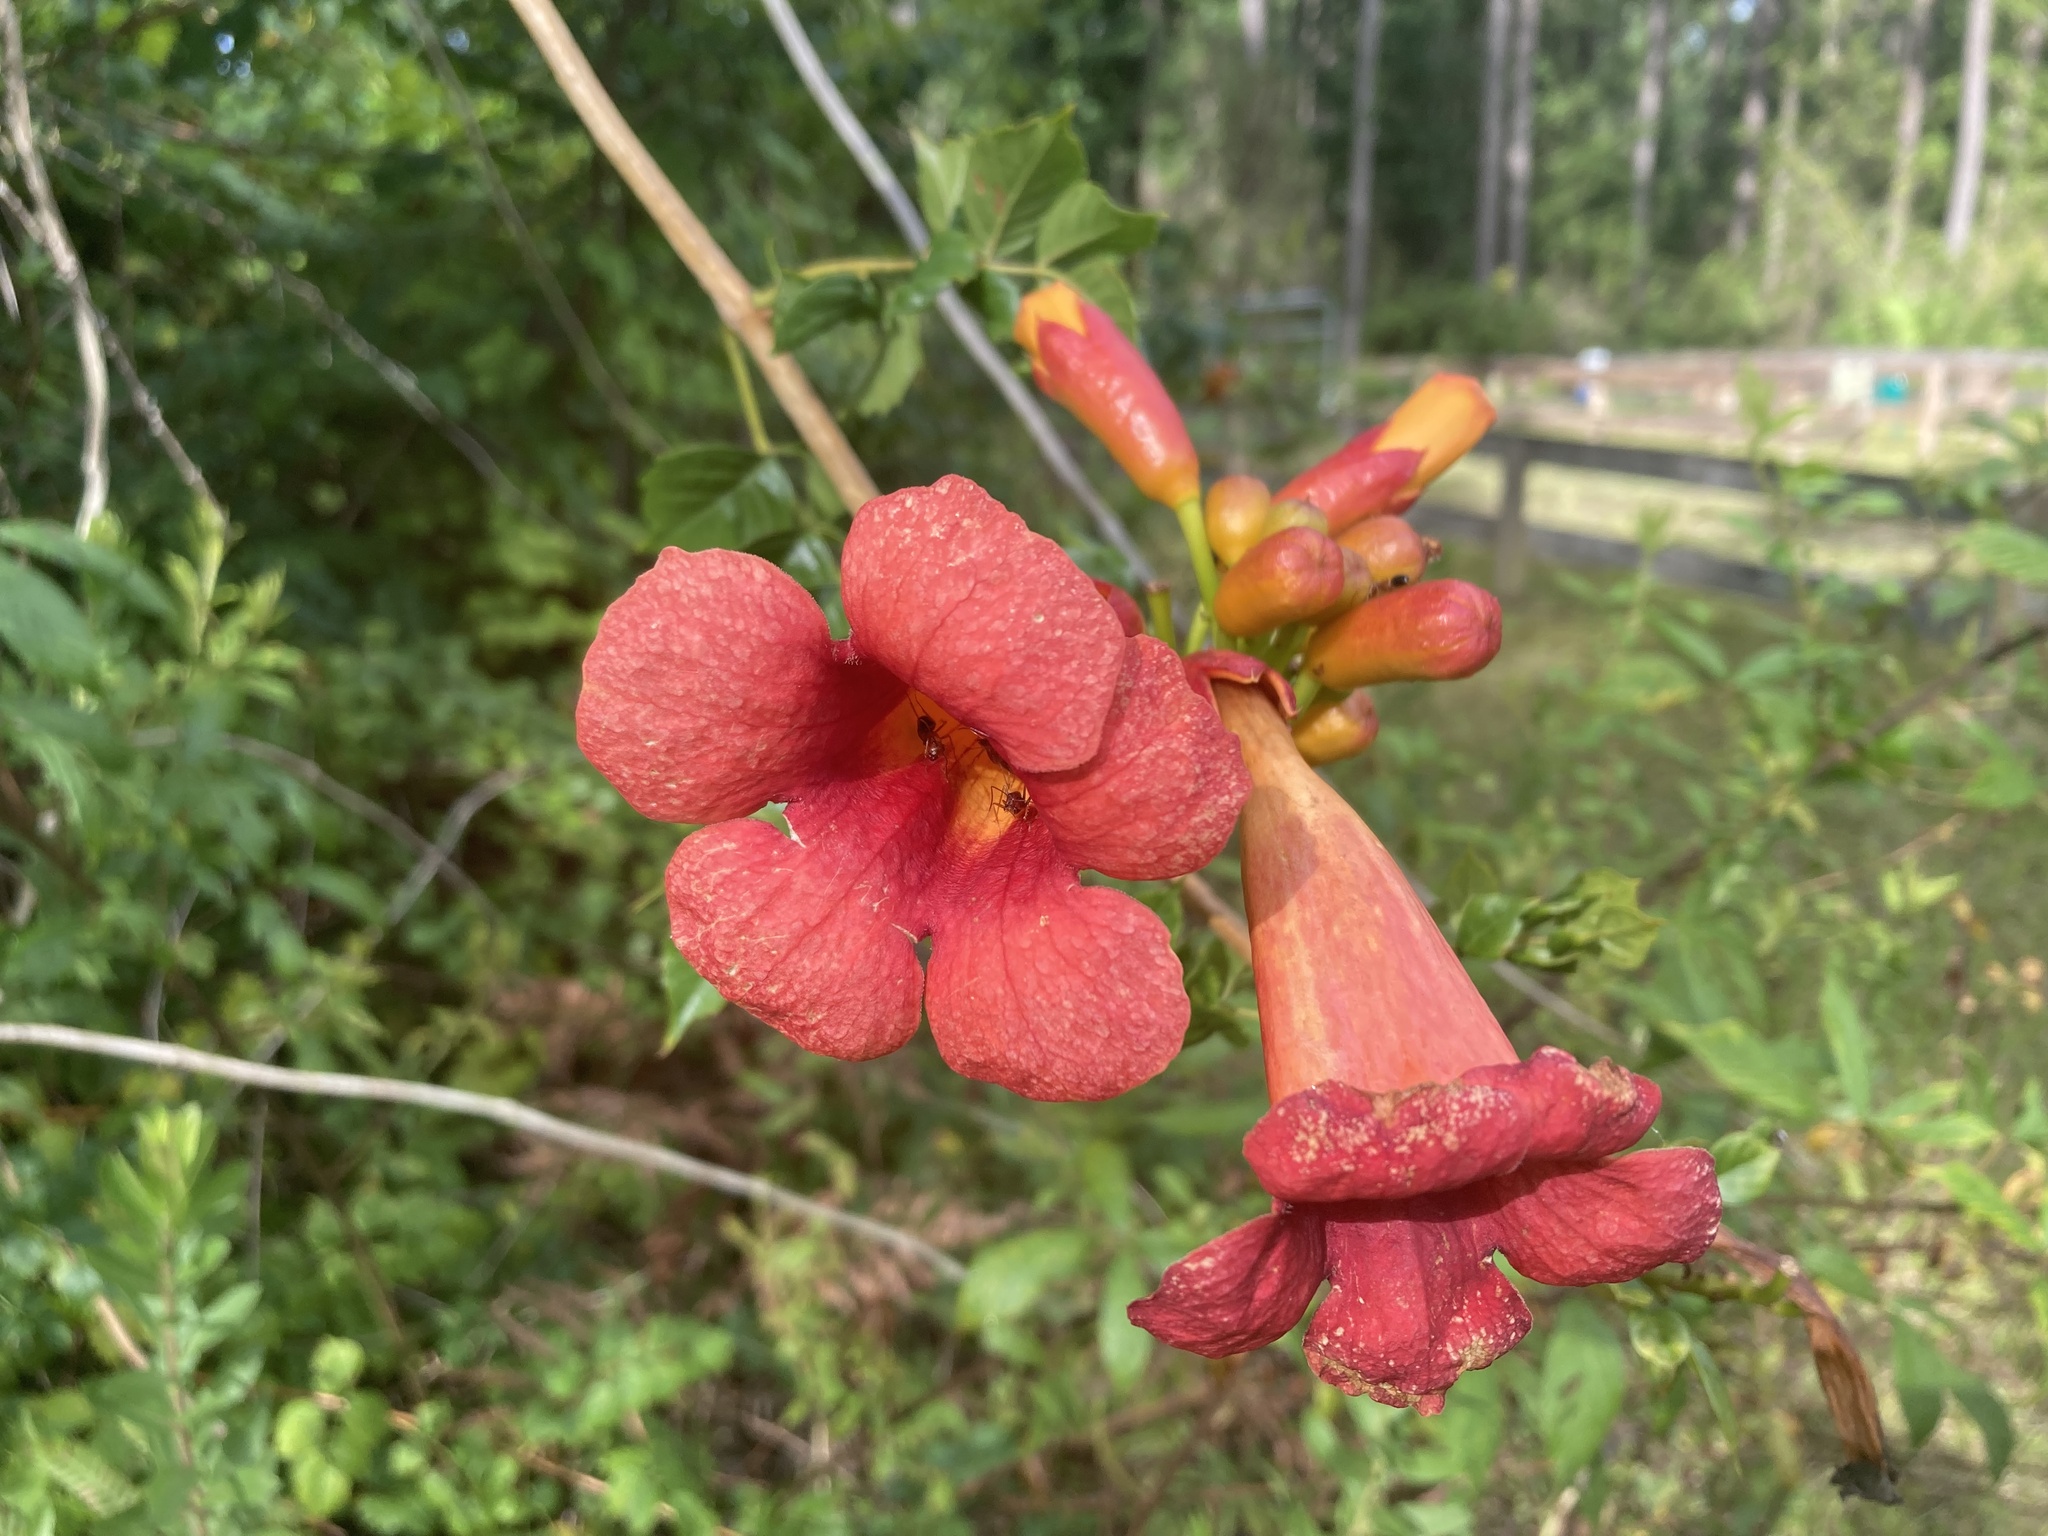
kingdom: Plantae
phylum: Tracheophyta
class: Magnoliopsida
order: Lamiales
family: Bignoniaceae
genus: Campsis
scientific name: Campsis radicans
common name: Trumpet-creeper
